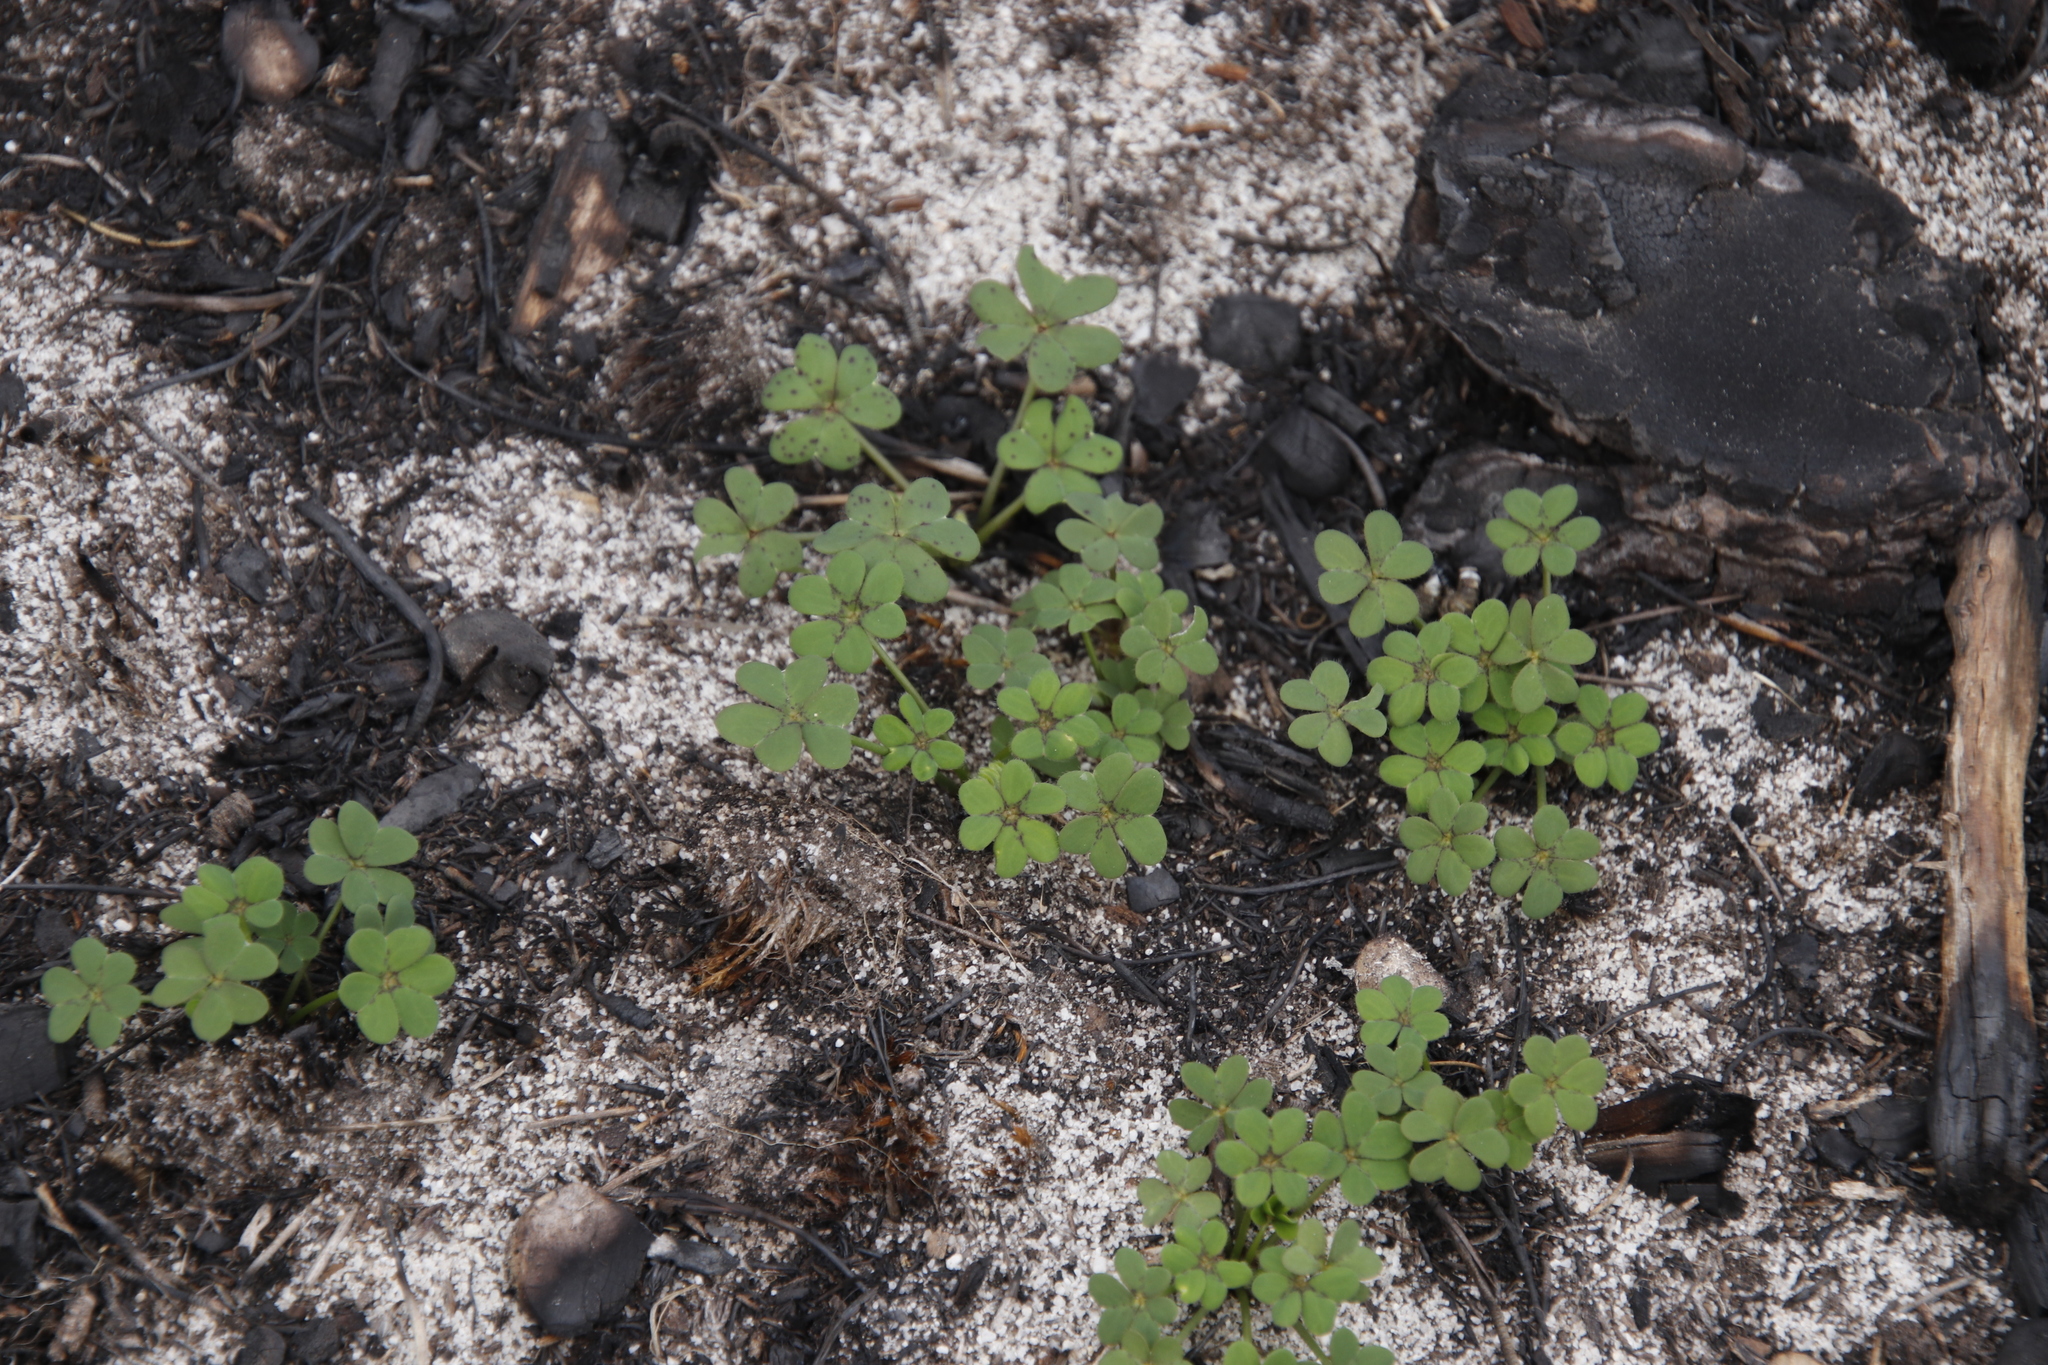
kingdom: Plantae
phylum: Tracheophyta
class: Magnoliopsida
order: Oxalidales
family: Oxalidaceae
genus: Oxalis
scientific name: Oxalis pes-caprae
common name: Bermuda-buttercup
